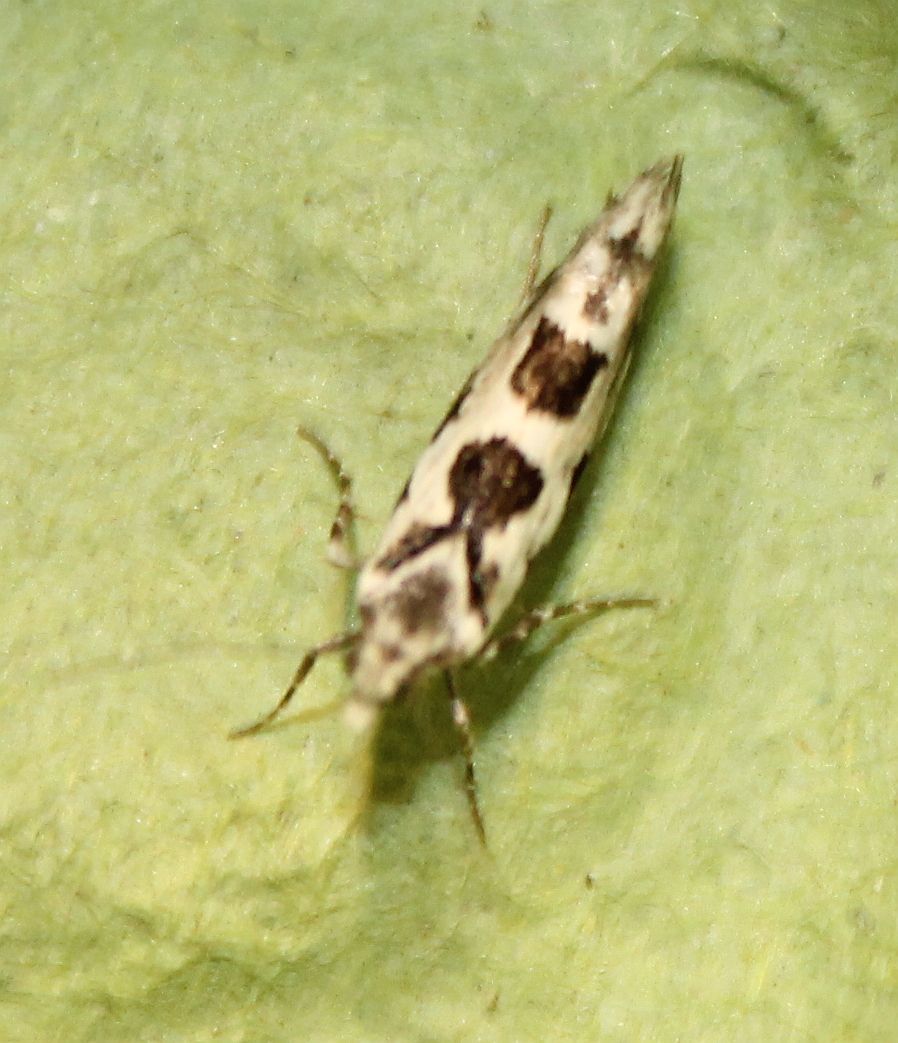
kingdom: Animalia
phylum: Arthropoda
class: Insecta
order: Lepidoptera
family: Plutellidae
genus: Ypsolophus
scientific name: Ypsolophus sequella
